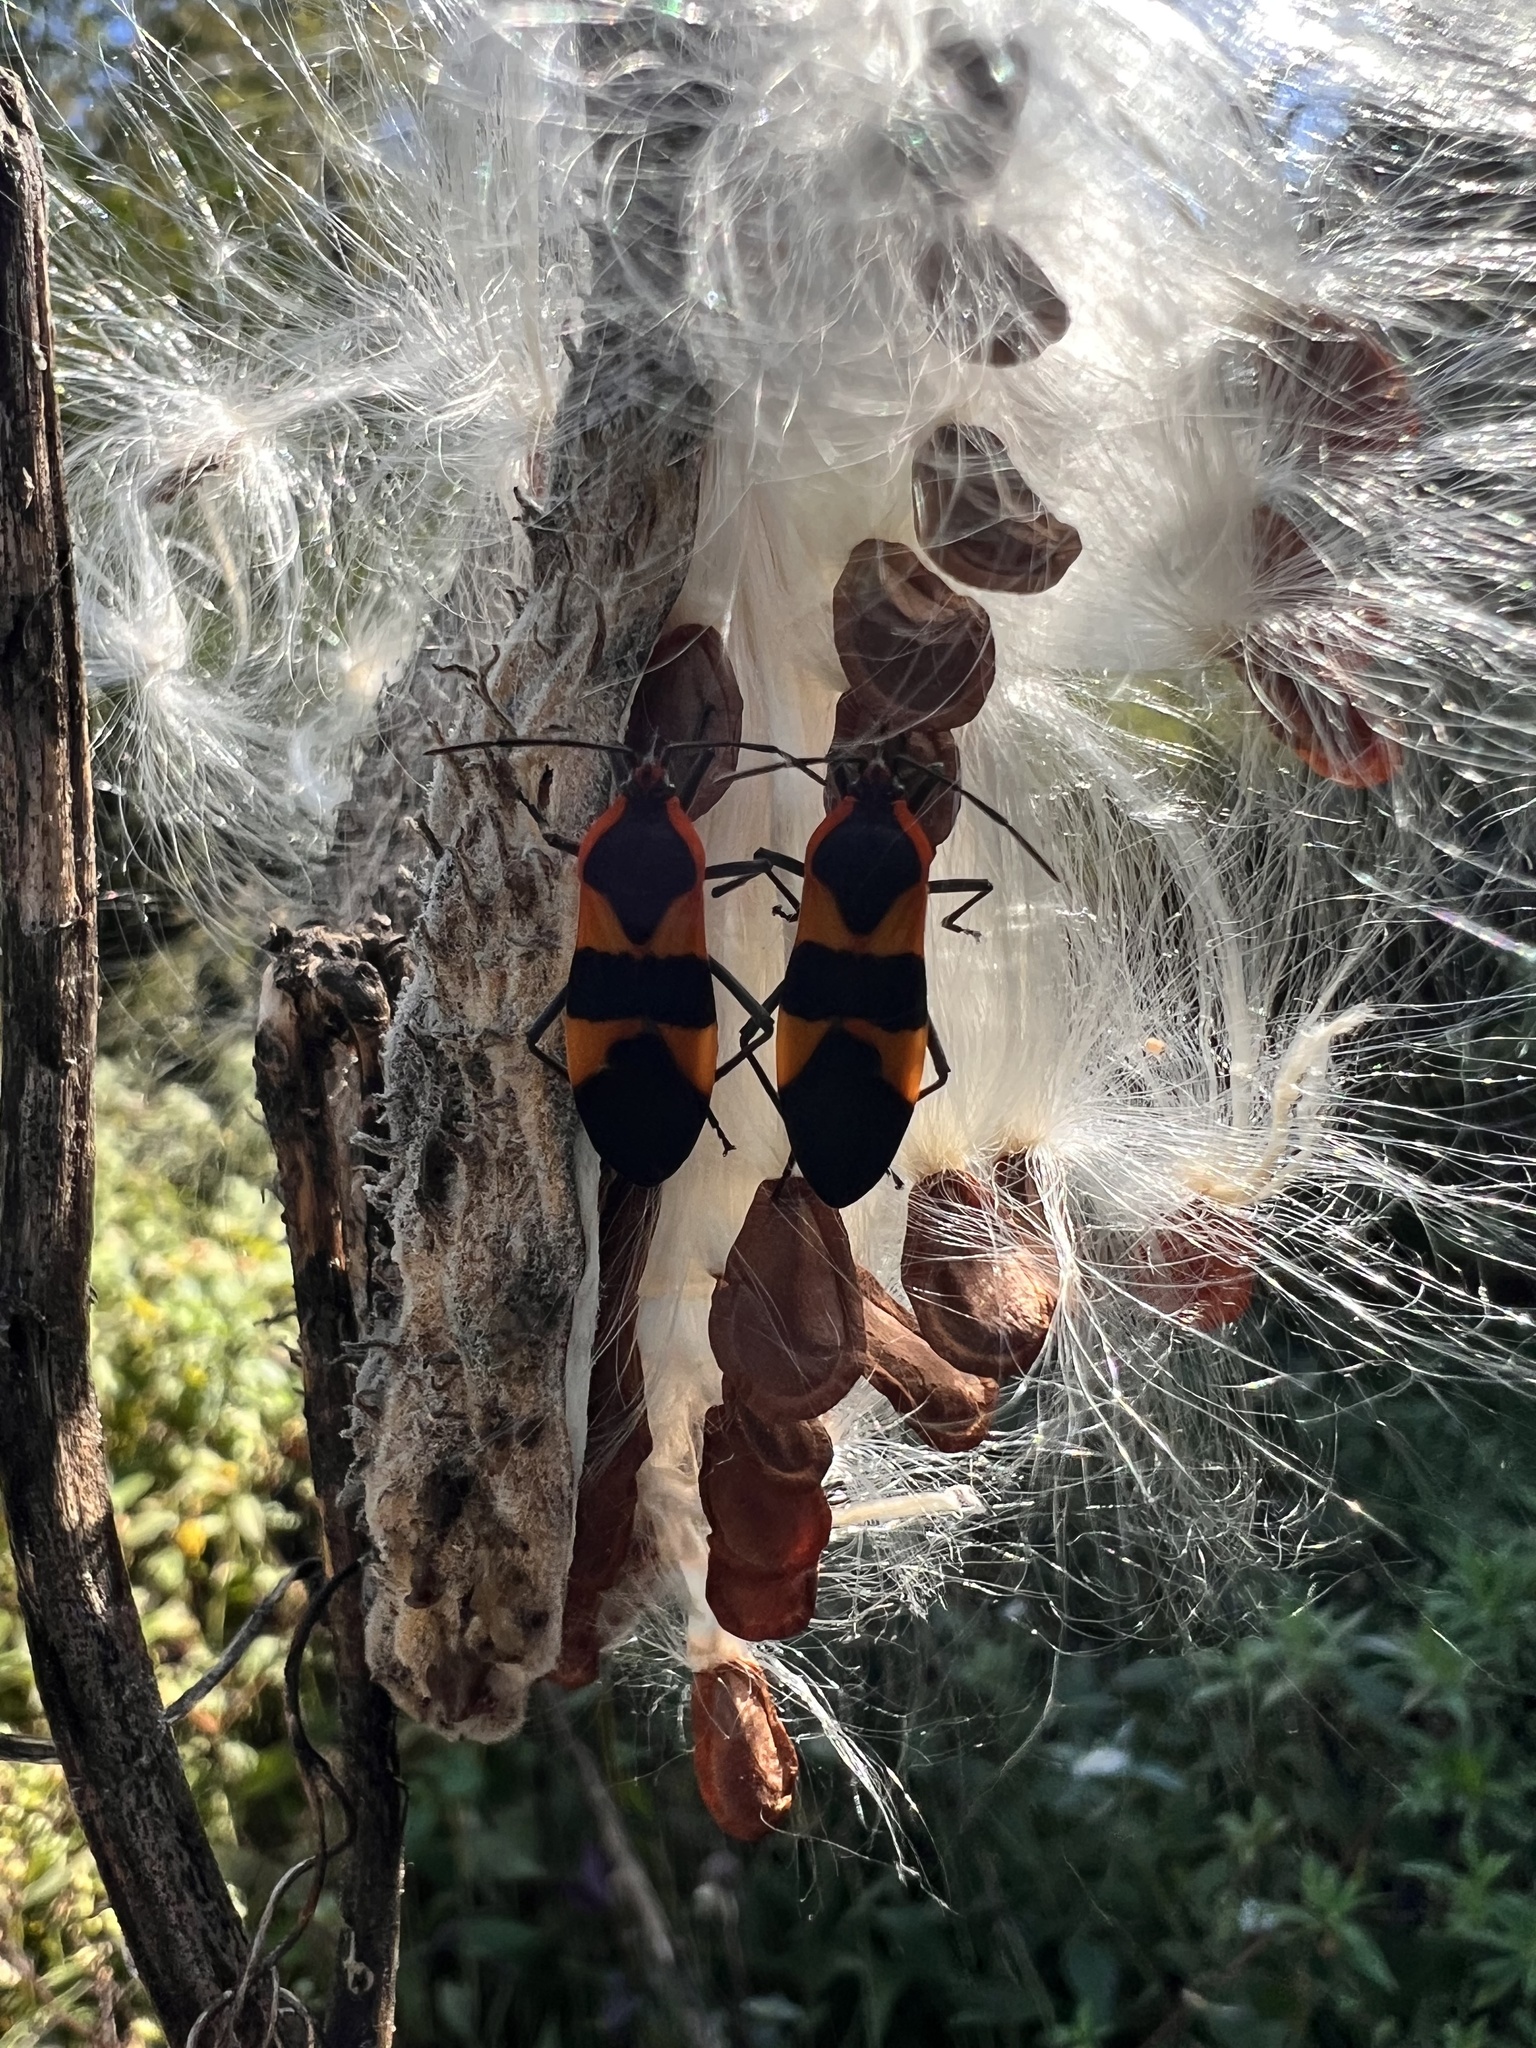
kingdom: Animalia
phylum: Arthropoda
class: Insecta
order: Hemiptera
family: Lygaeidae
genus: Oncopeltus
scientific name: Oncopeltus fasciatus
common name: Large milkweed bug
